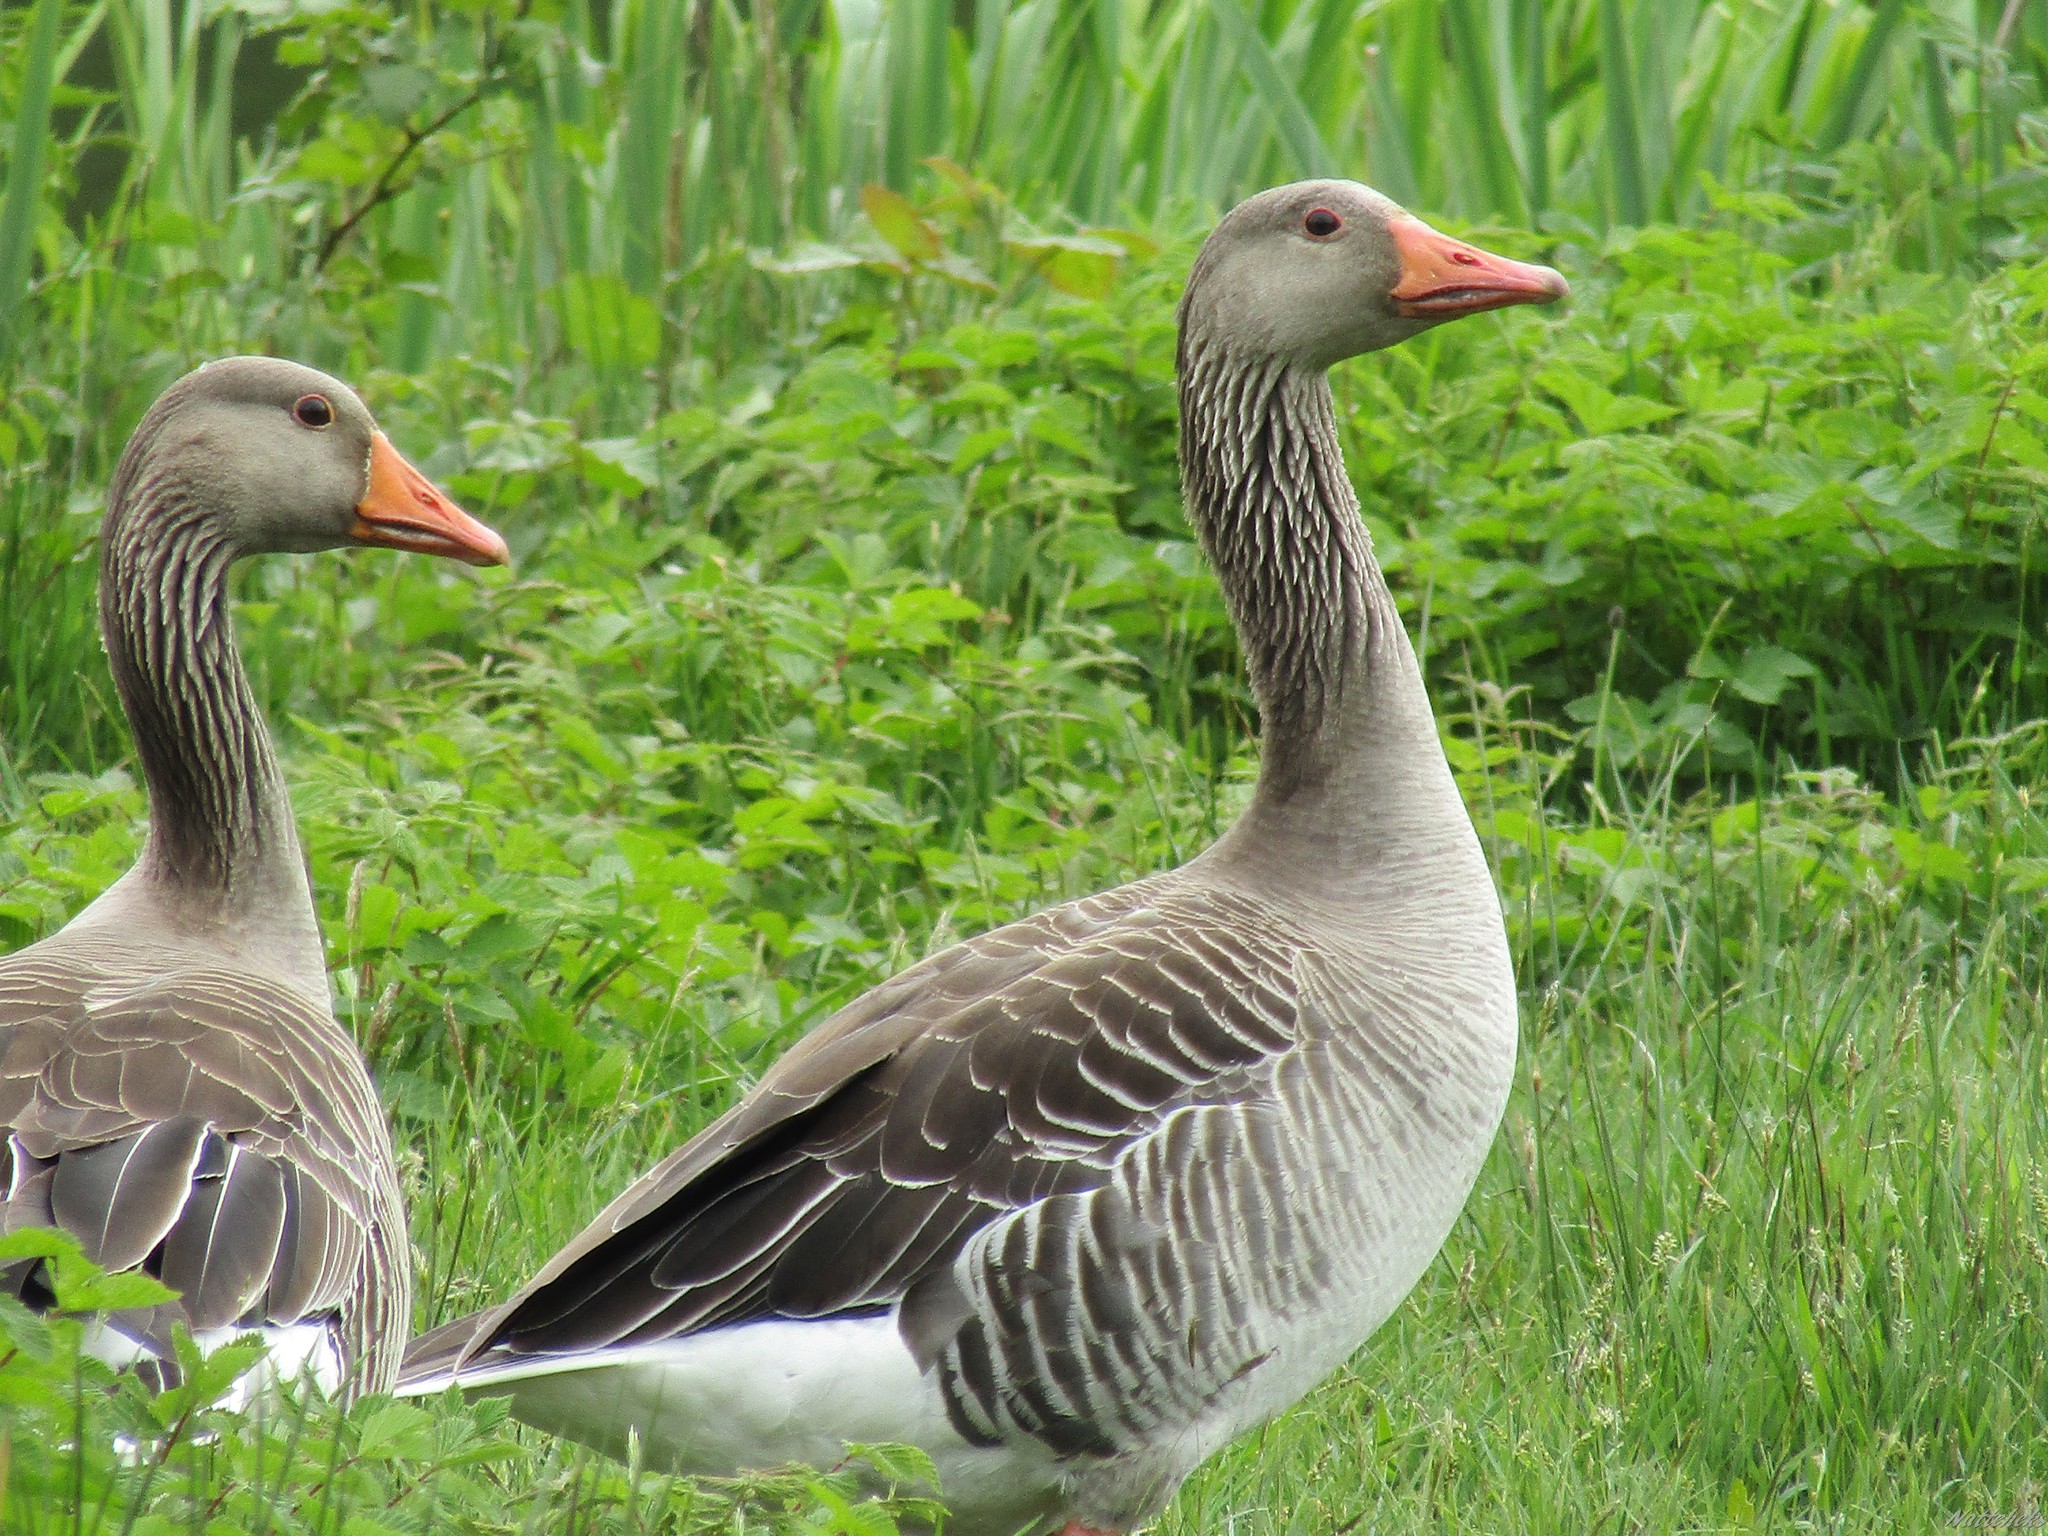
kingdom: Animalia
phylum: Chordata
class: Aves
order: Anseriformes
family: Anatidae
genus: Anser
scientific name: Anser anser
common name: Greylag goose
